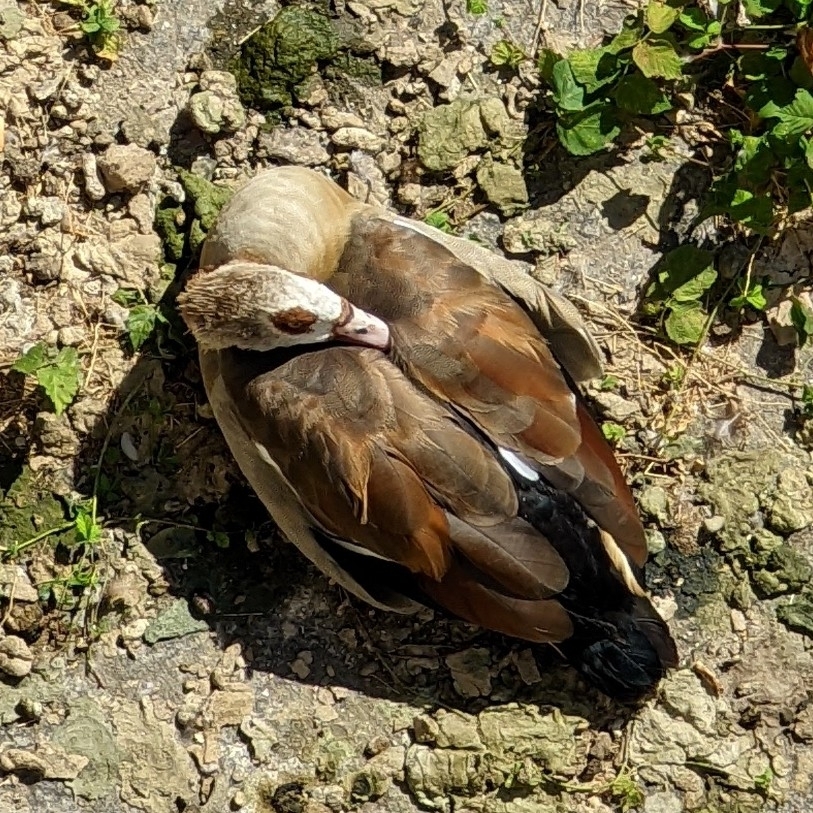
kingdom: Animalia
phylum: Chordata
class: Aves
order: Anseriformes
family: Anatidae
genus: Alopochen
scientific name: Alopochen aegyptiaca
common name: Egyptian goose
